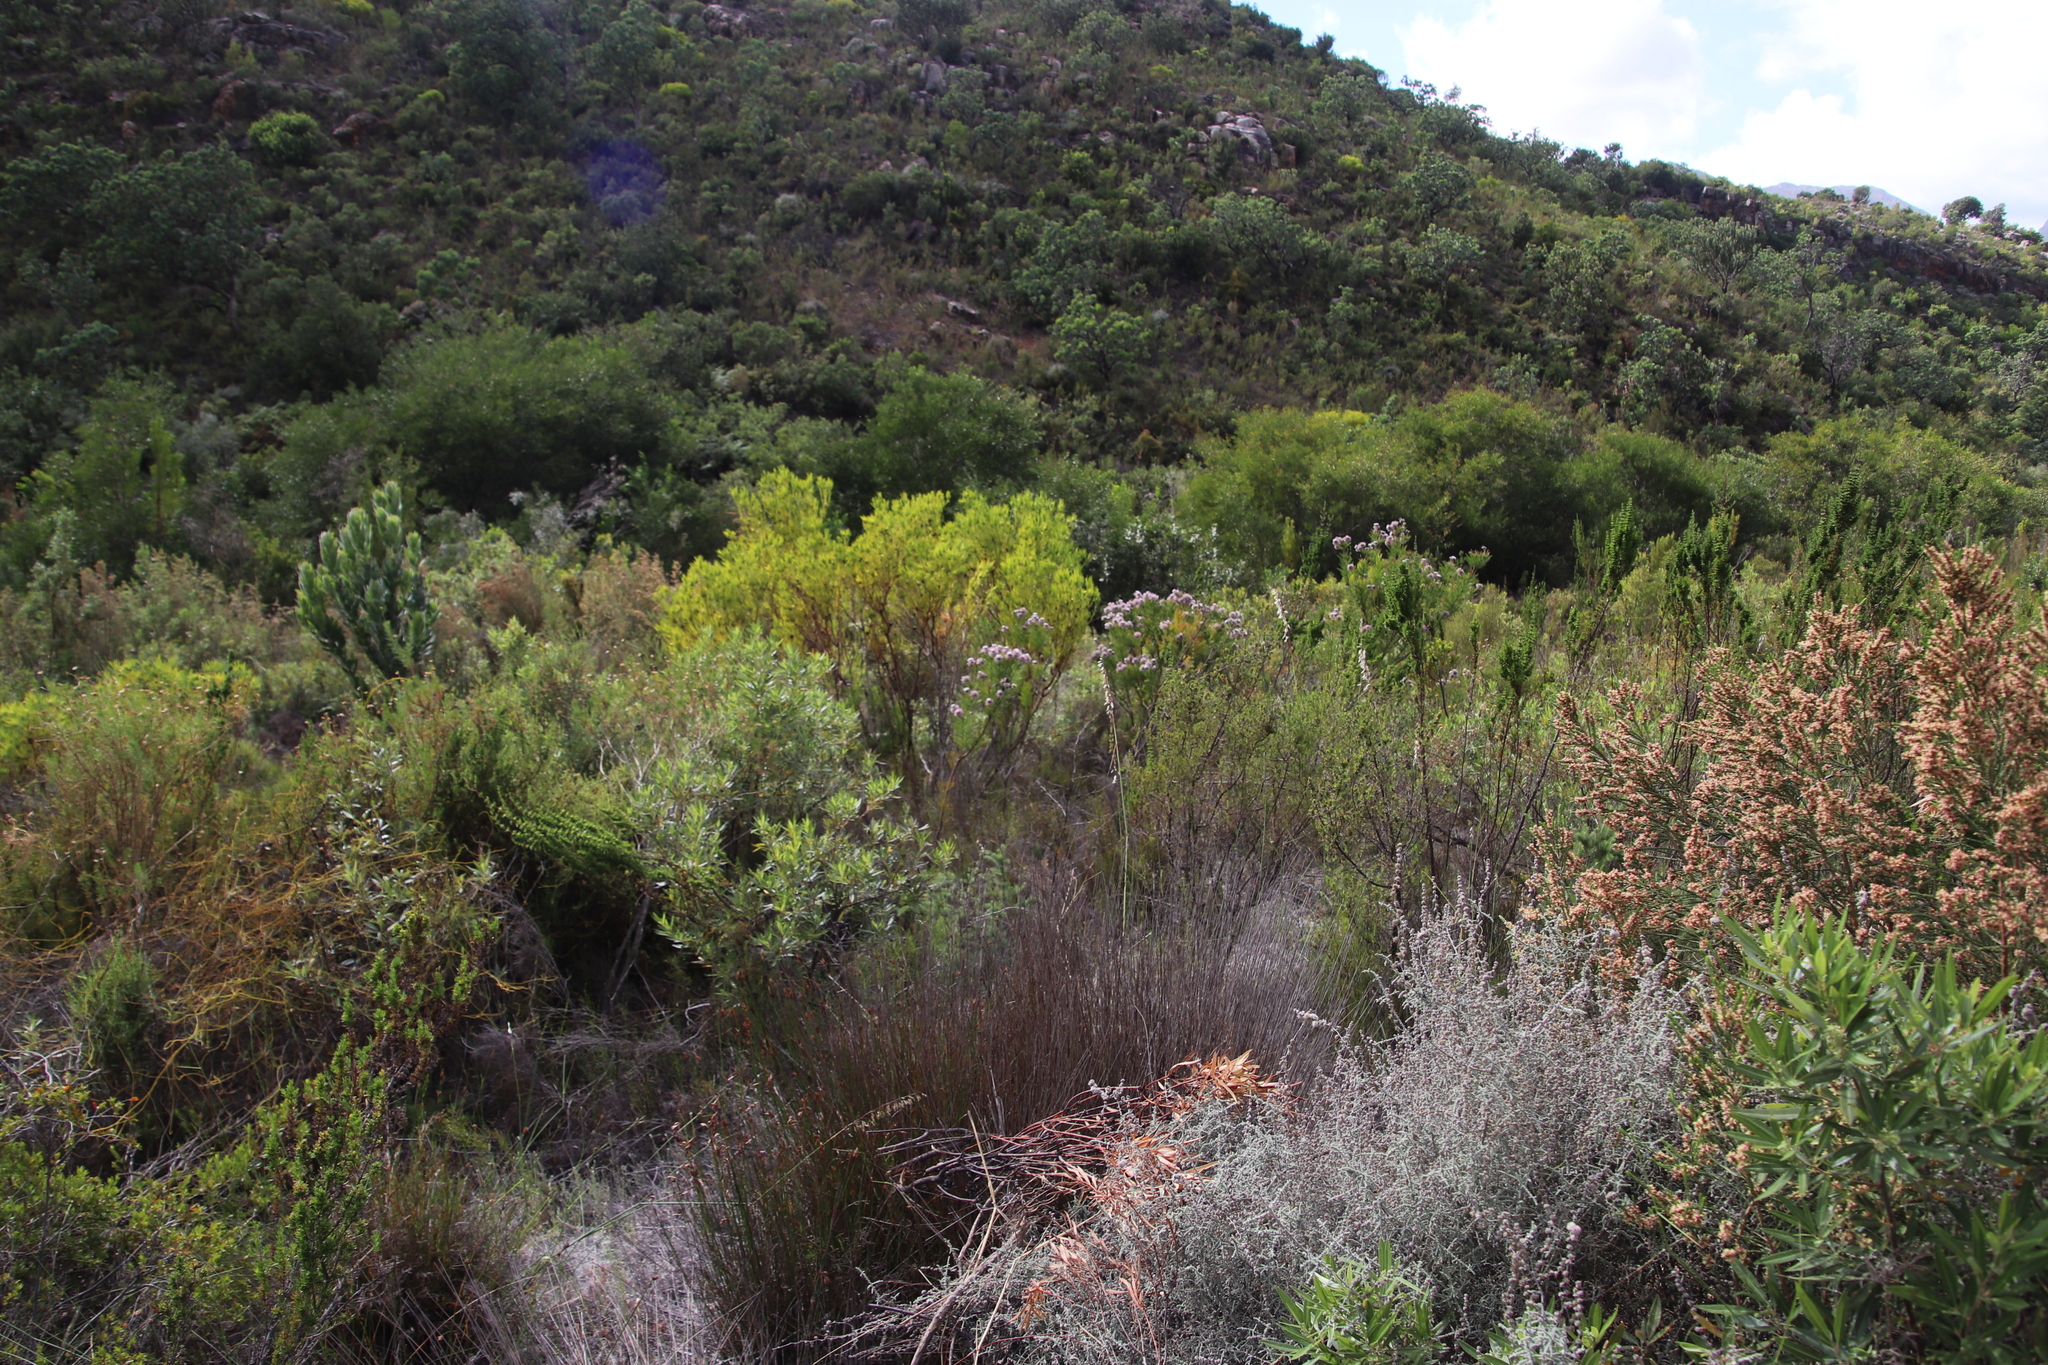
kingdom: Plantae
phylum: Tracheophyta
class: Magnoliopsida
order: Proteales
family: Proteaceae
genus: Serruria
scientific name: Serruria acrocarpa
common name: Common rootstock spiderhead
